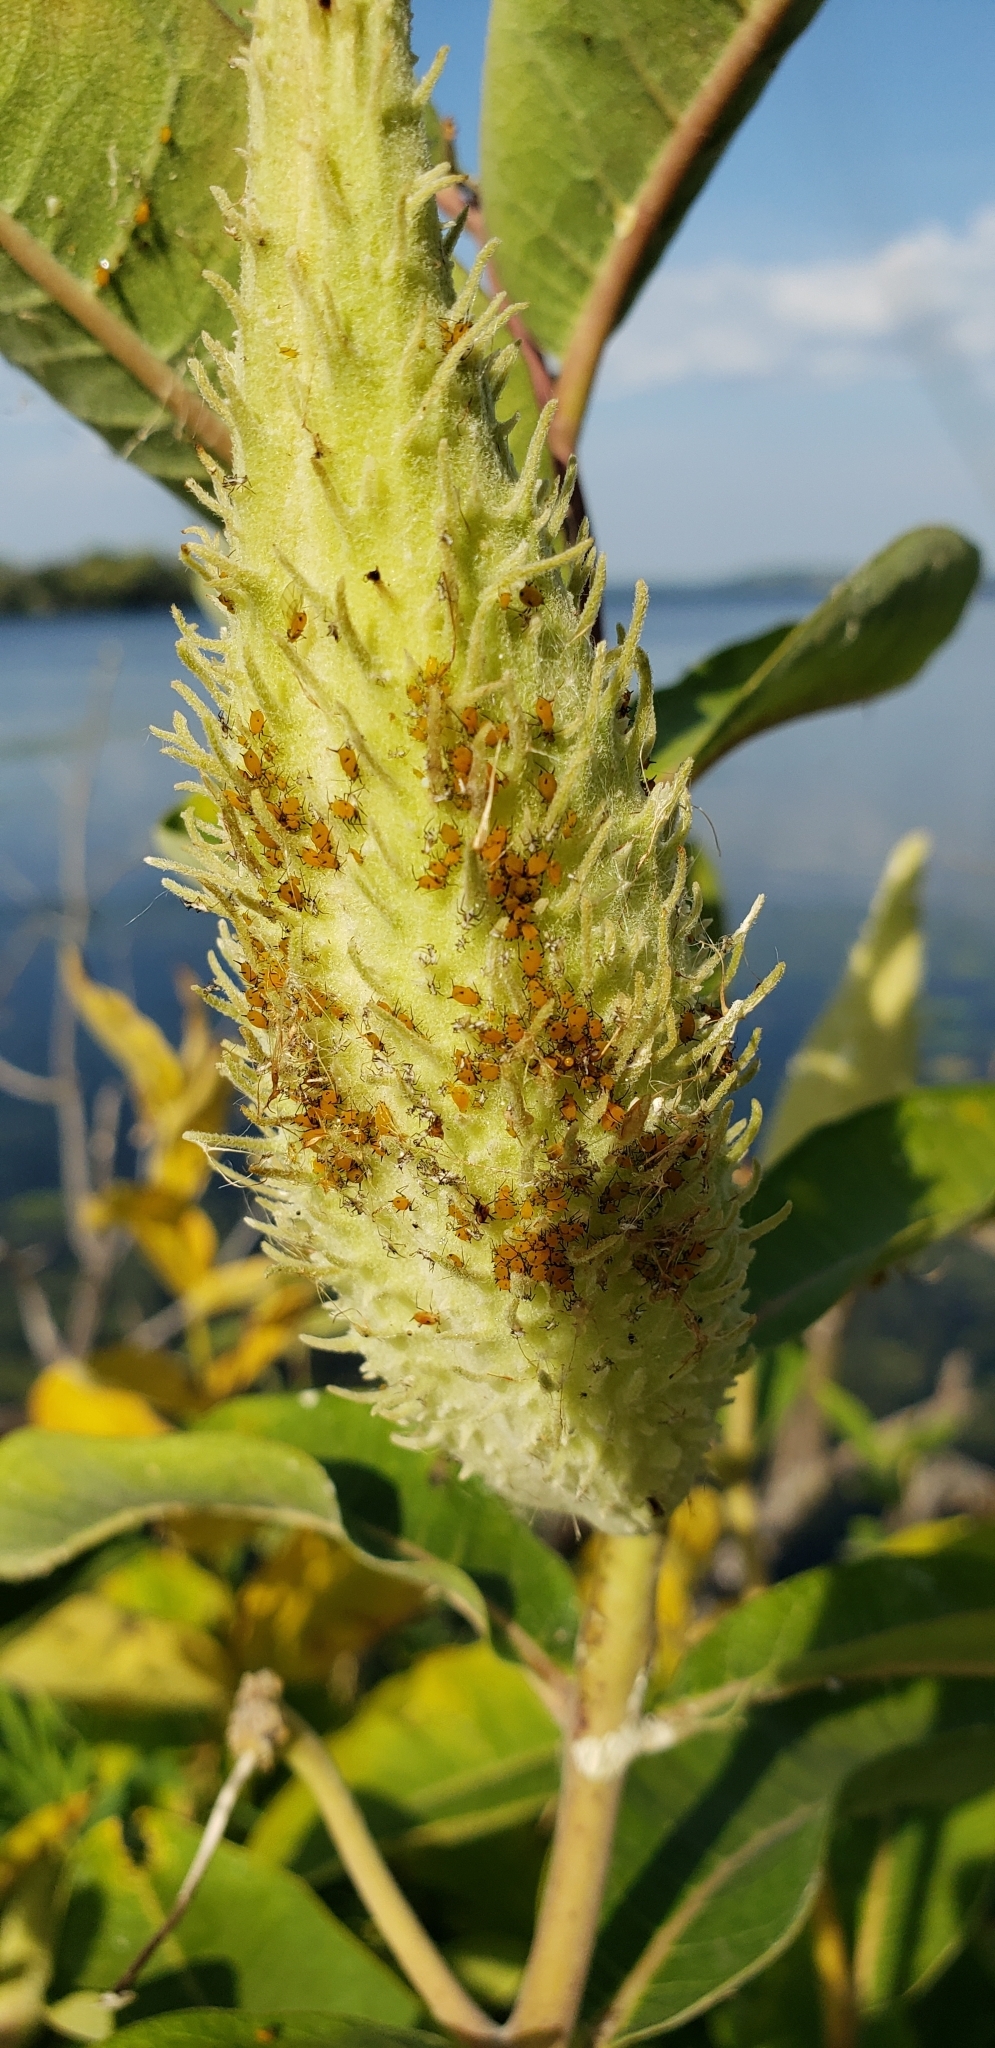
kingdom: Animalia
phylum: Arthropoda
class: Insecta
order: Hemiptera
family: Aphididae
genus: Aphis
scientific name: Aphis nerii
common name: Oleander aphid
